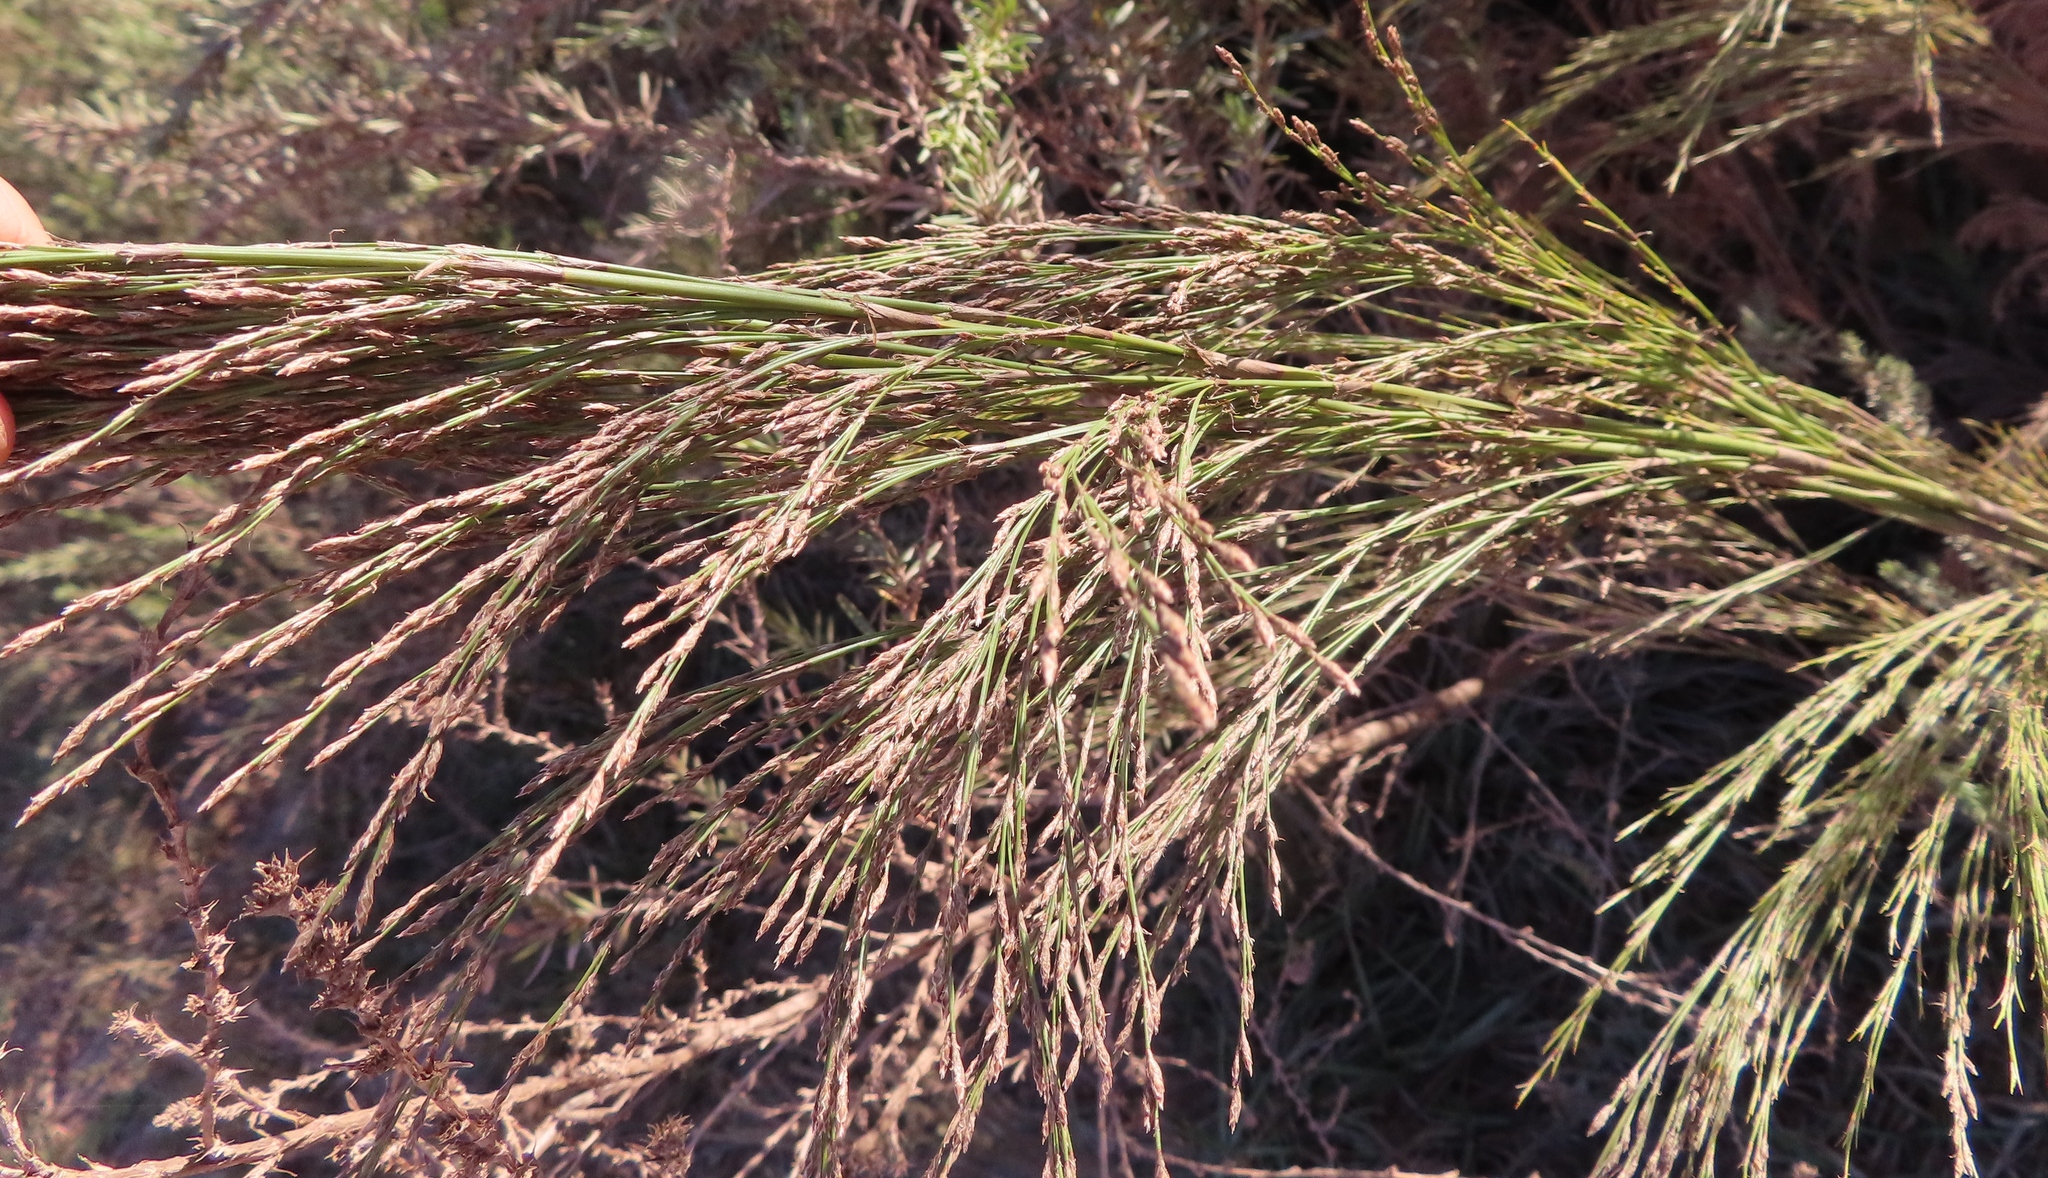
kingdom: Plantae
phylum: Tracheophyta
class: Liliopsida
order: Poales
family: Restionaceae
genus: Restio
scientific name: Restio paniculatus
